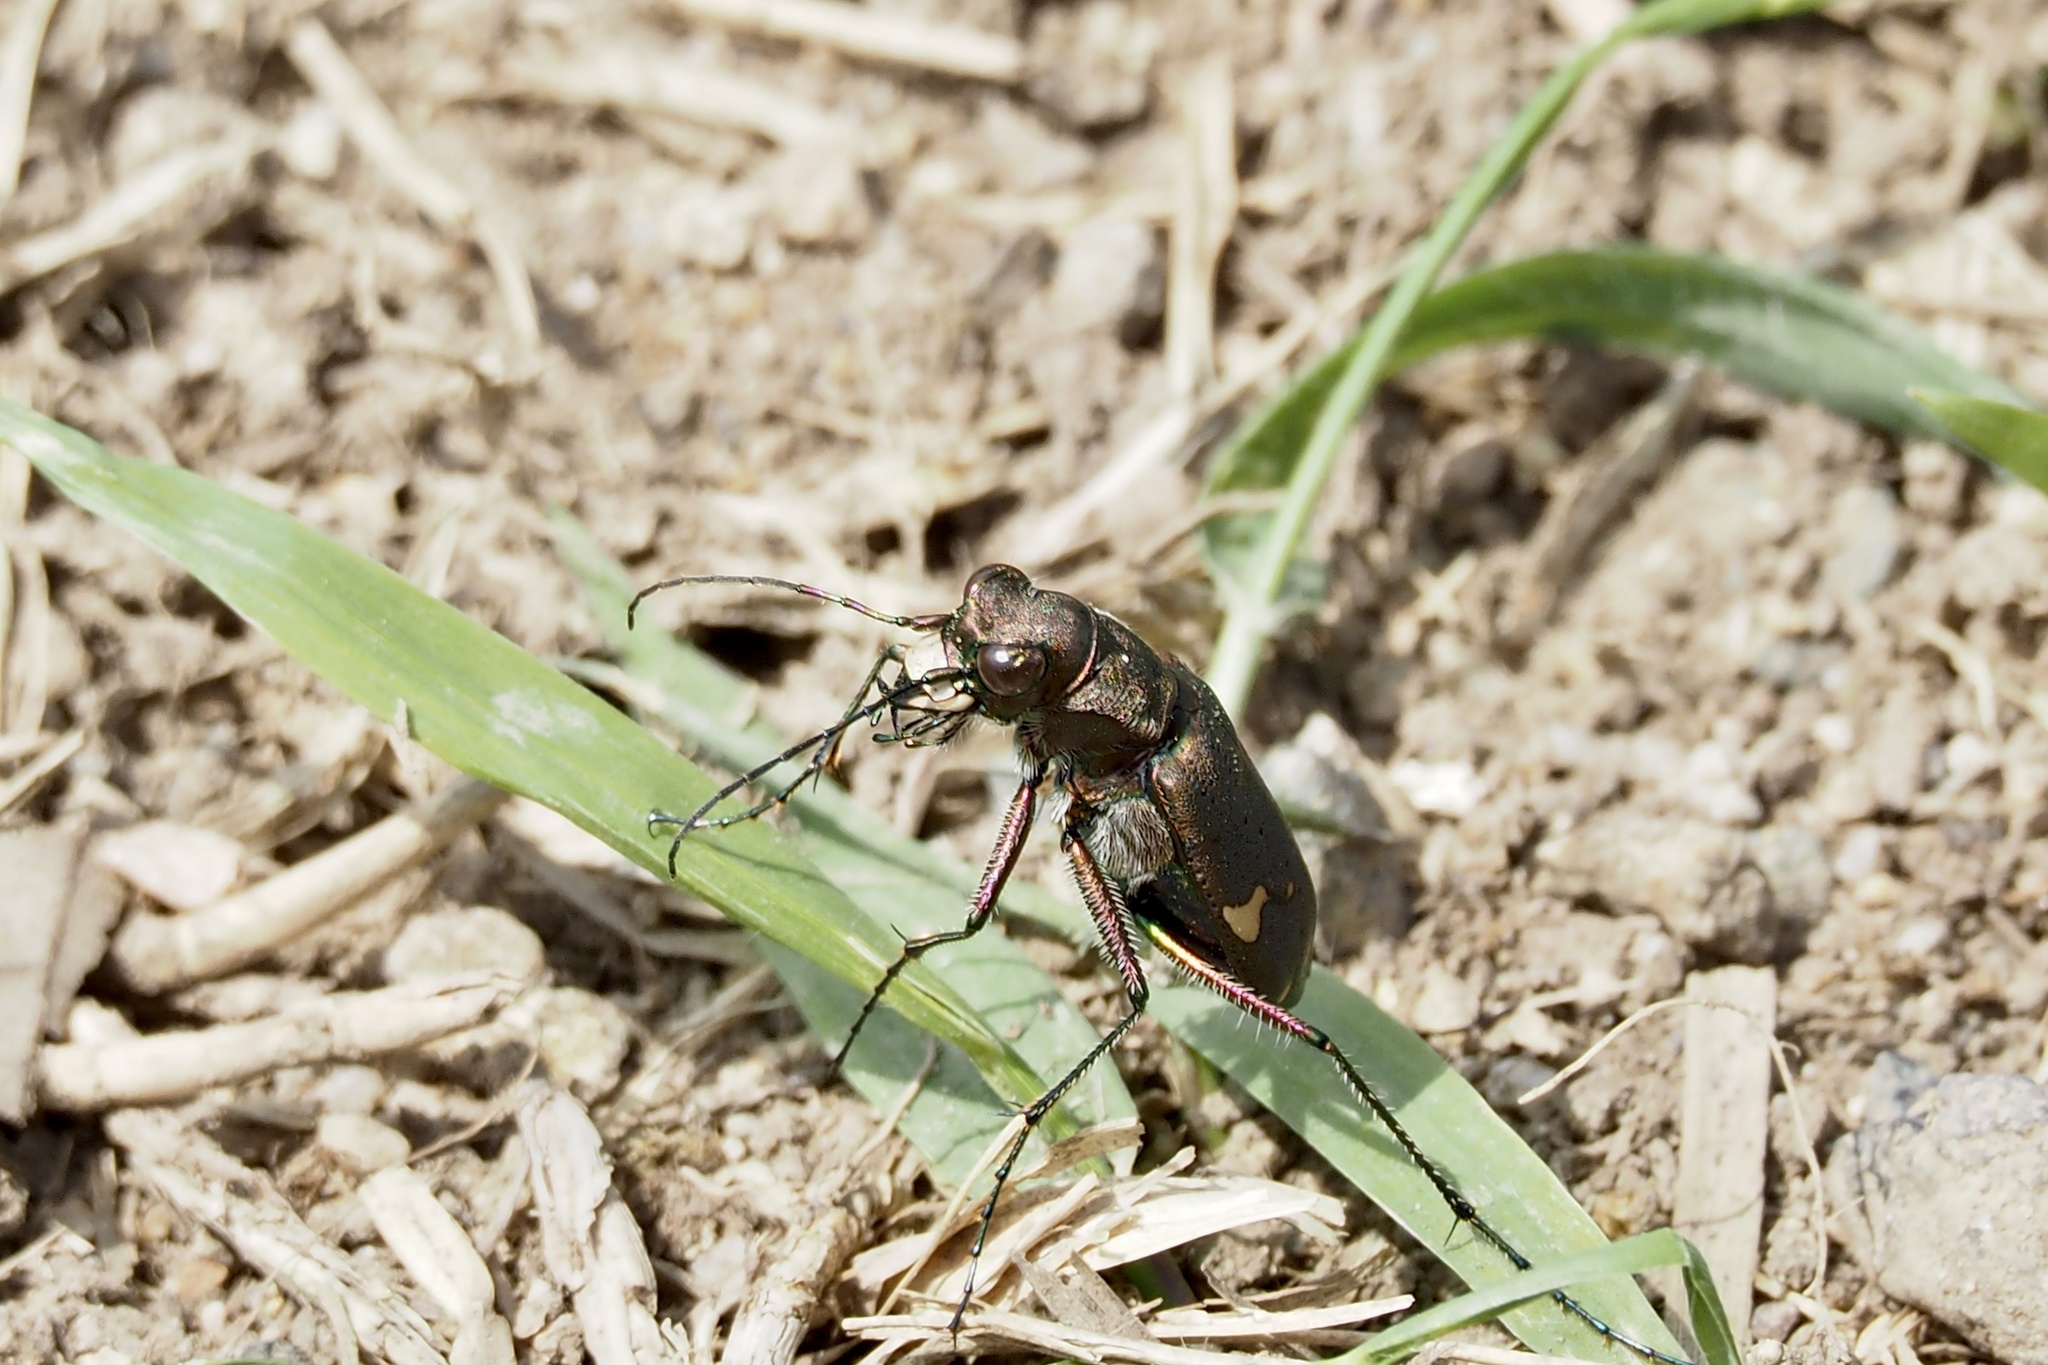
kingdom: Animalia
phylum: Arthropoda
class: Insecta
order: Coleoptera
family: Carabidae
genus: Cicindela
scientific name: Cicindela japana
